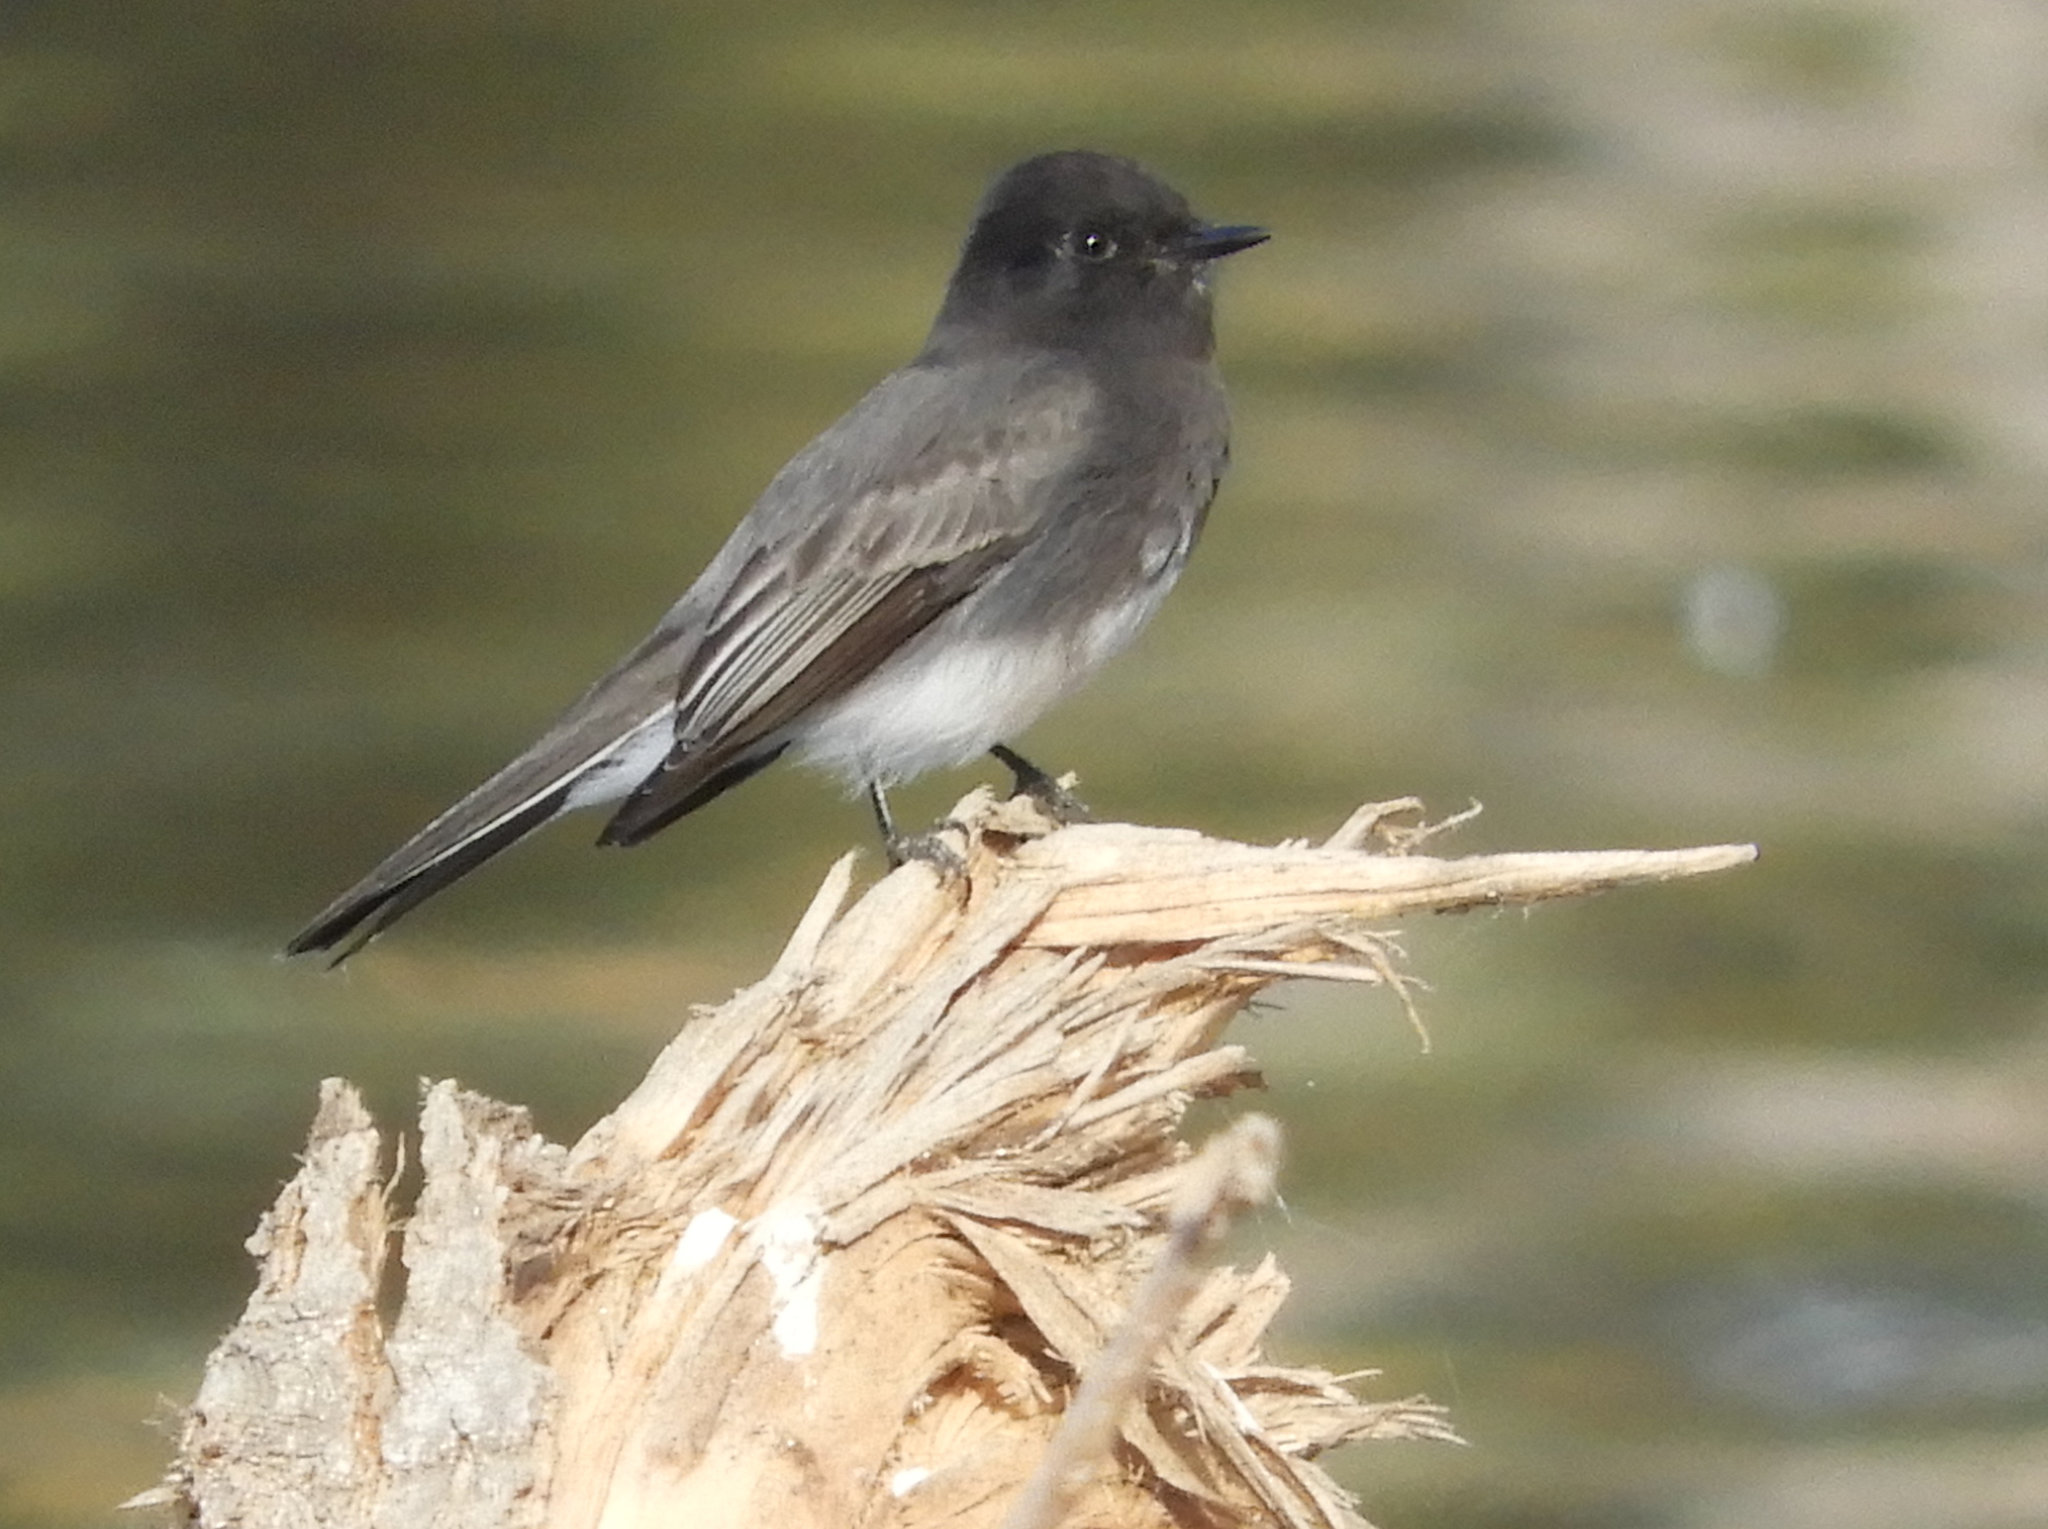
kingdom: Animalia
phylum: Chordata
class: Aves
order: Passeriformes
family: Tyrannidae
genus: Sayornis
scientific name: Sayornis nigricans
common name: Black phoebe
